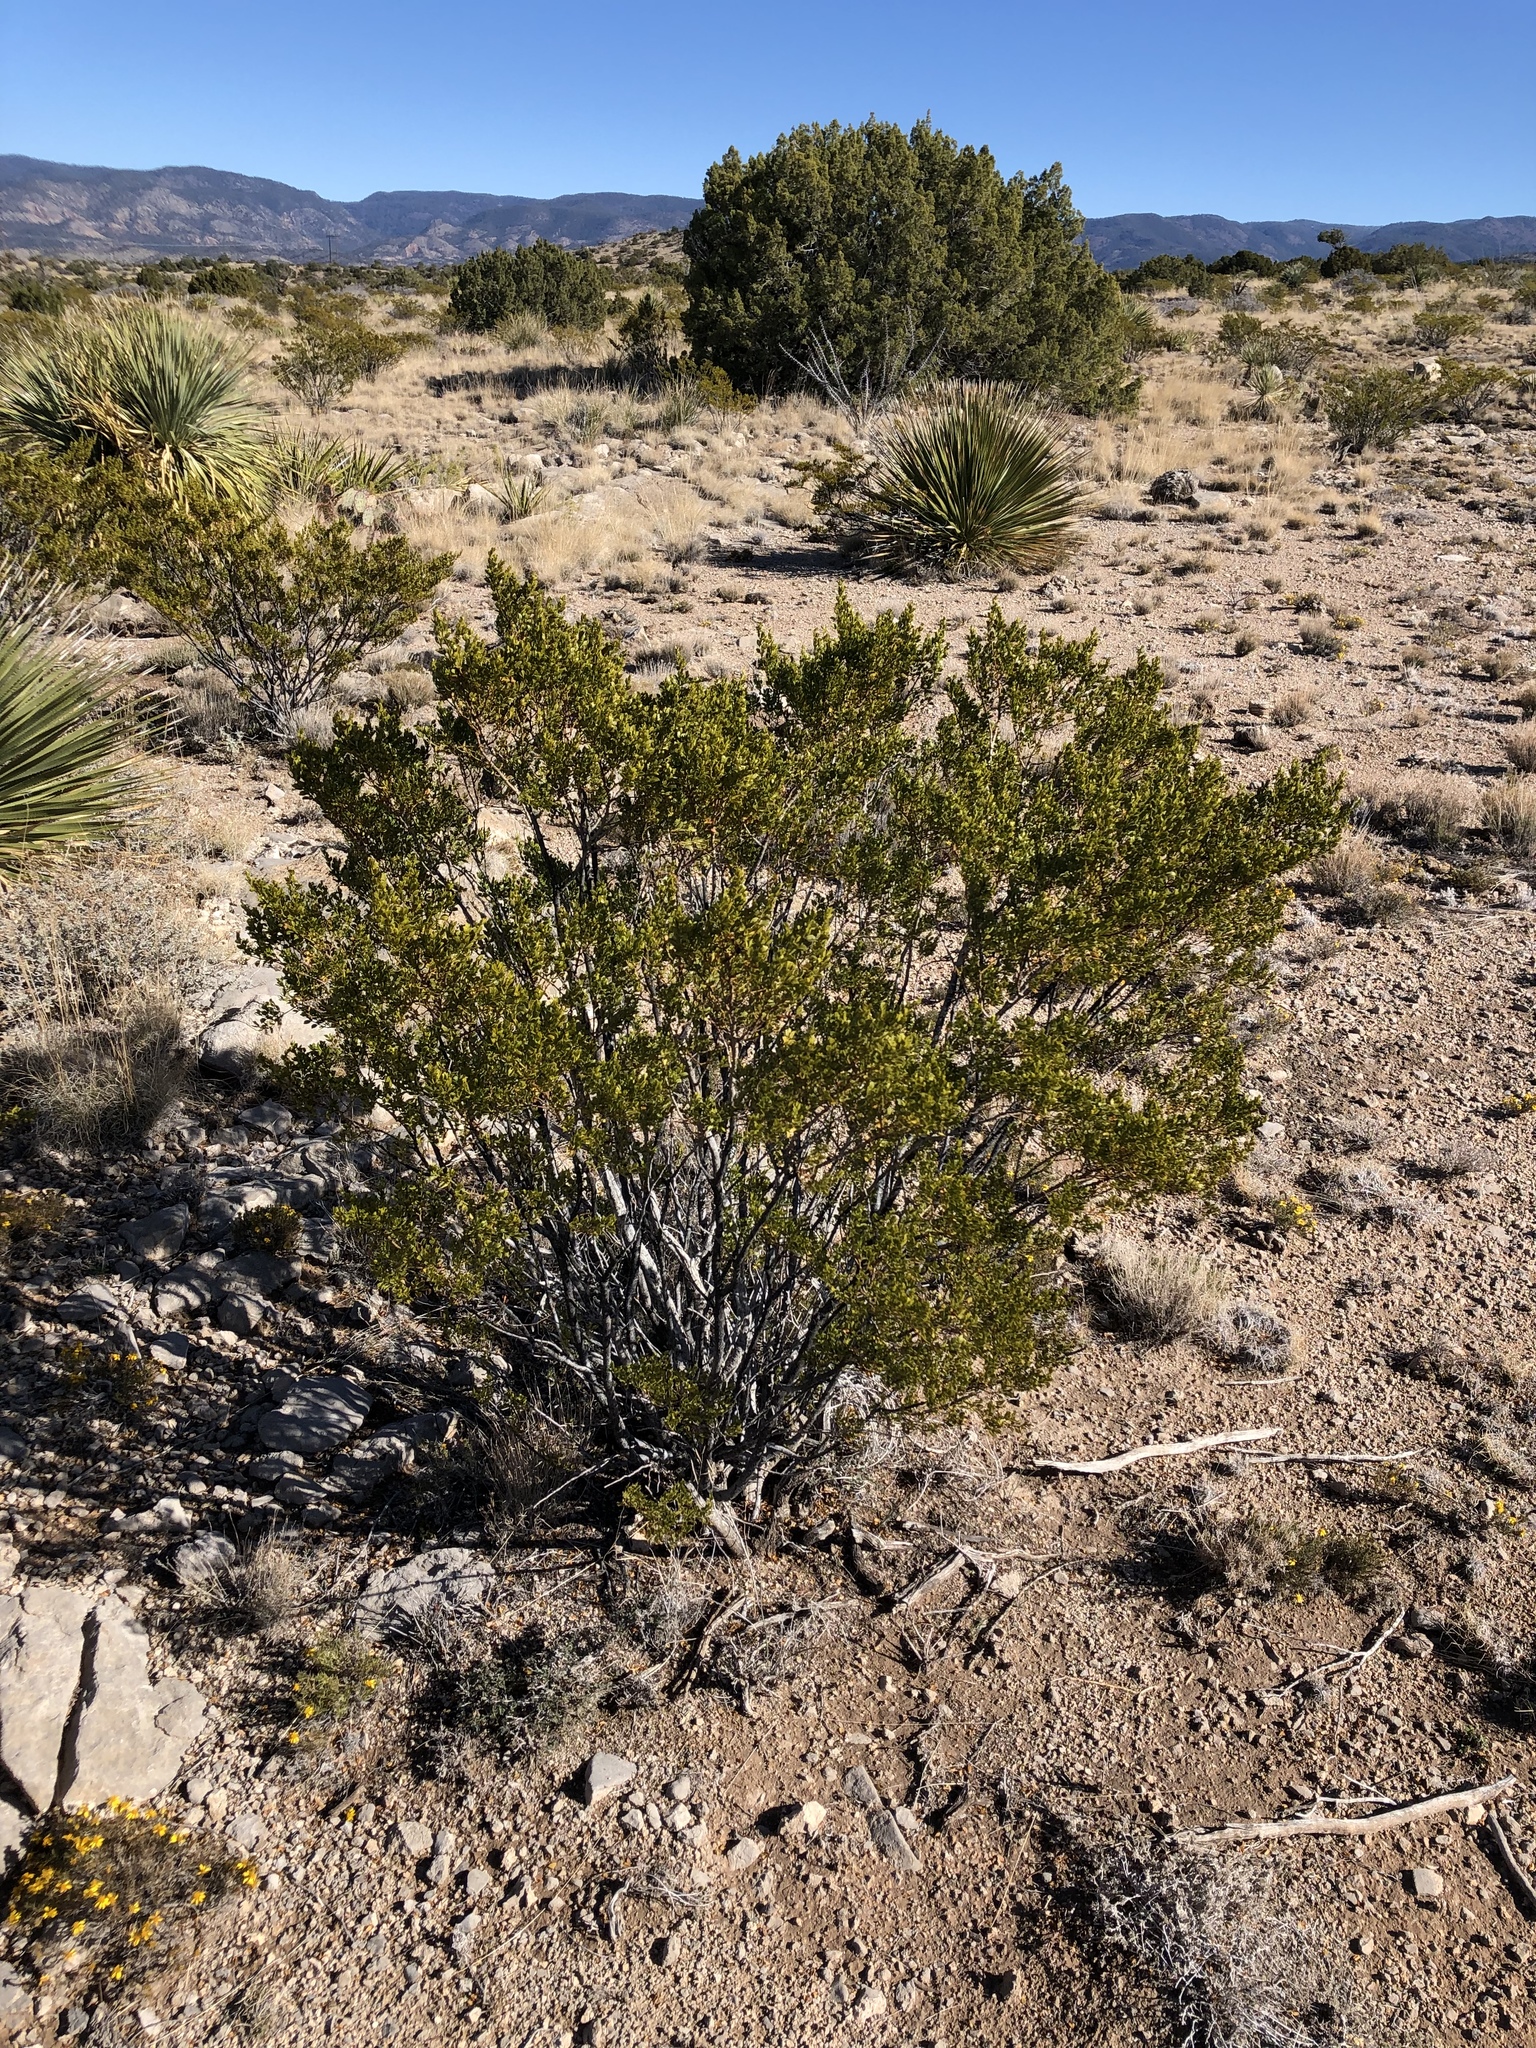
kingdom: Plantae
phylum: Tracheophyta
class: Magnoliopsida
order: Zygophyllales
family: Zygophyllaceae
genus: Larrea
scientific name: Larrea tridentata
